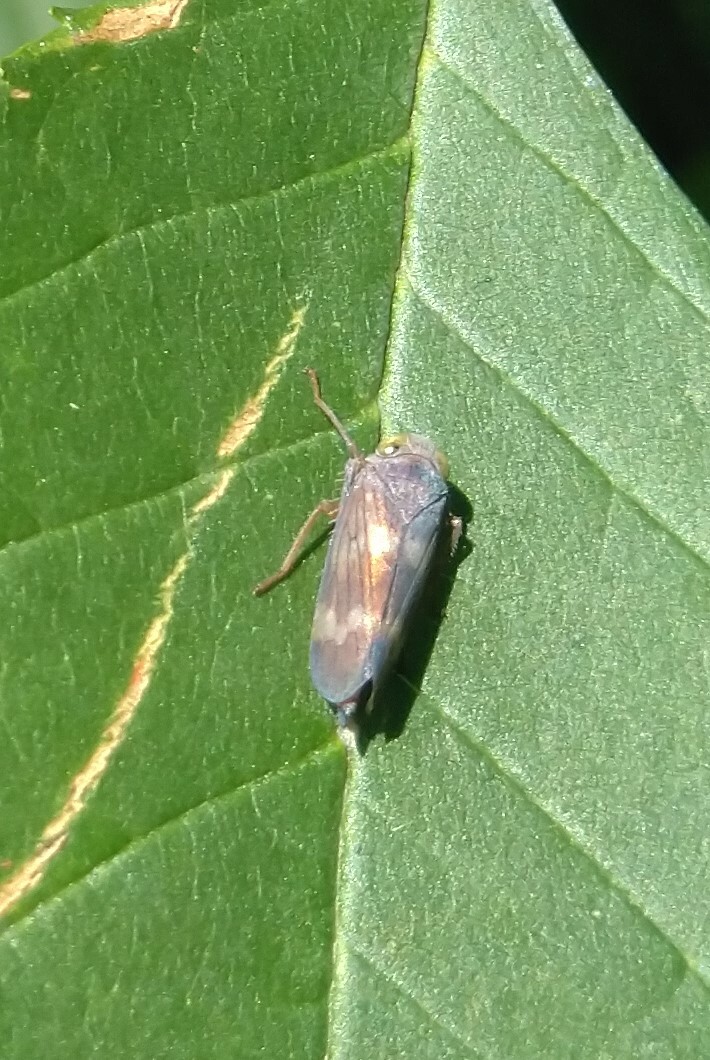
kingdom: Animalia
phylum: Arthropoda
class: Insecta
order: Hemiptera
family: Cicadellidae
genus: Jikradia
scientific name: Jikradia olitoria
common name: Coppery leafhopper
